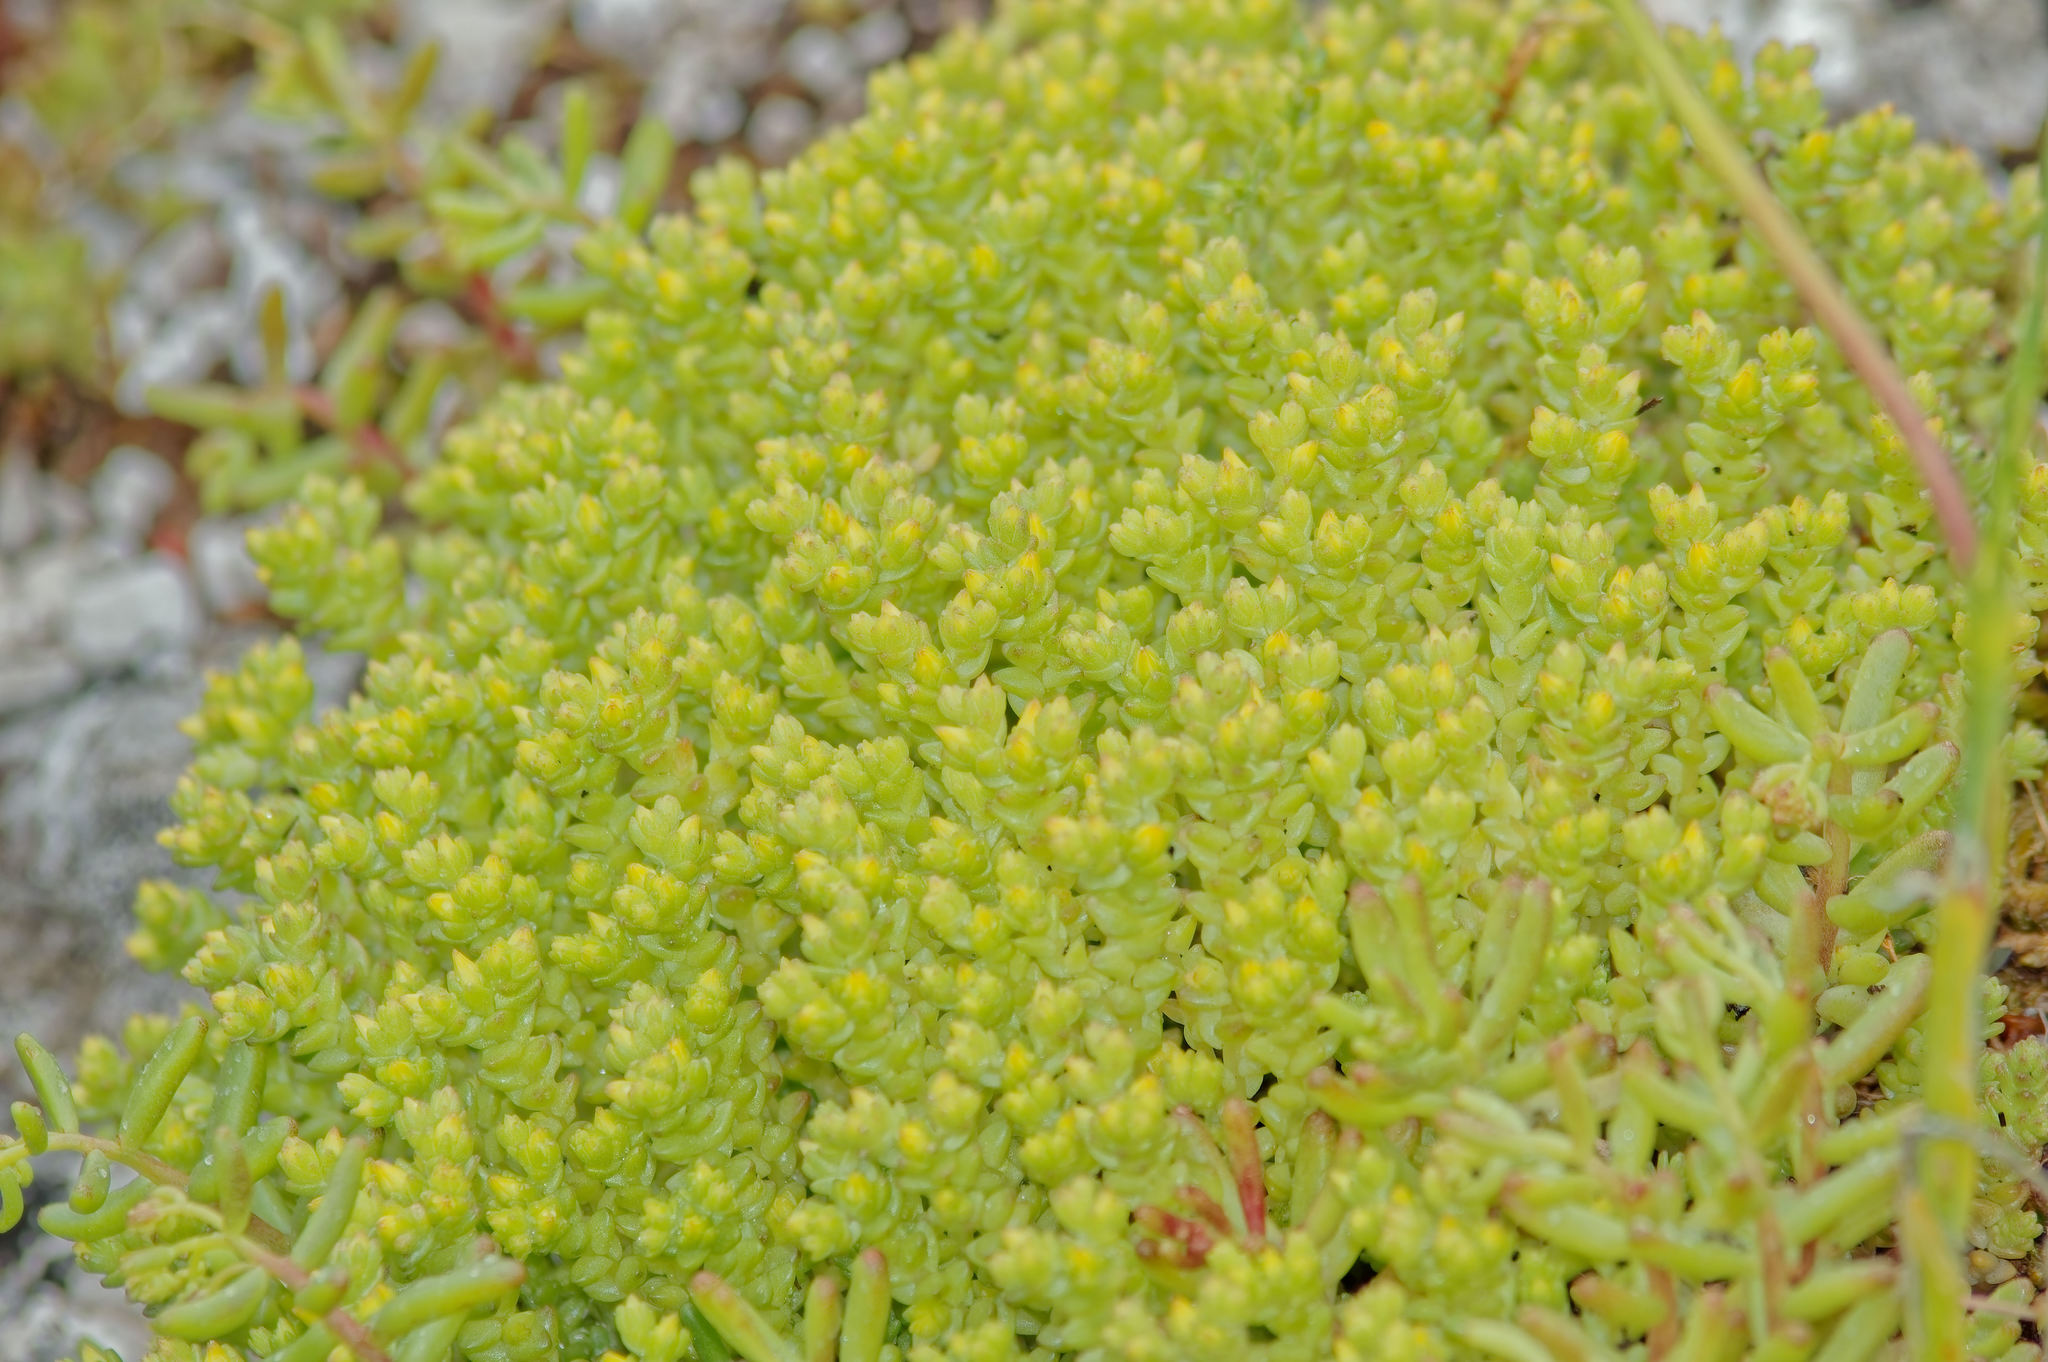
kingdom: Plantae
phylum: Tracheophyta
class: Magnoliopsida
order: Saxifragales
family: Crassulaceae
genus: Sedum
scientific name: Sedum acre
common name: Biting stonecrop
